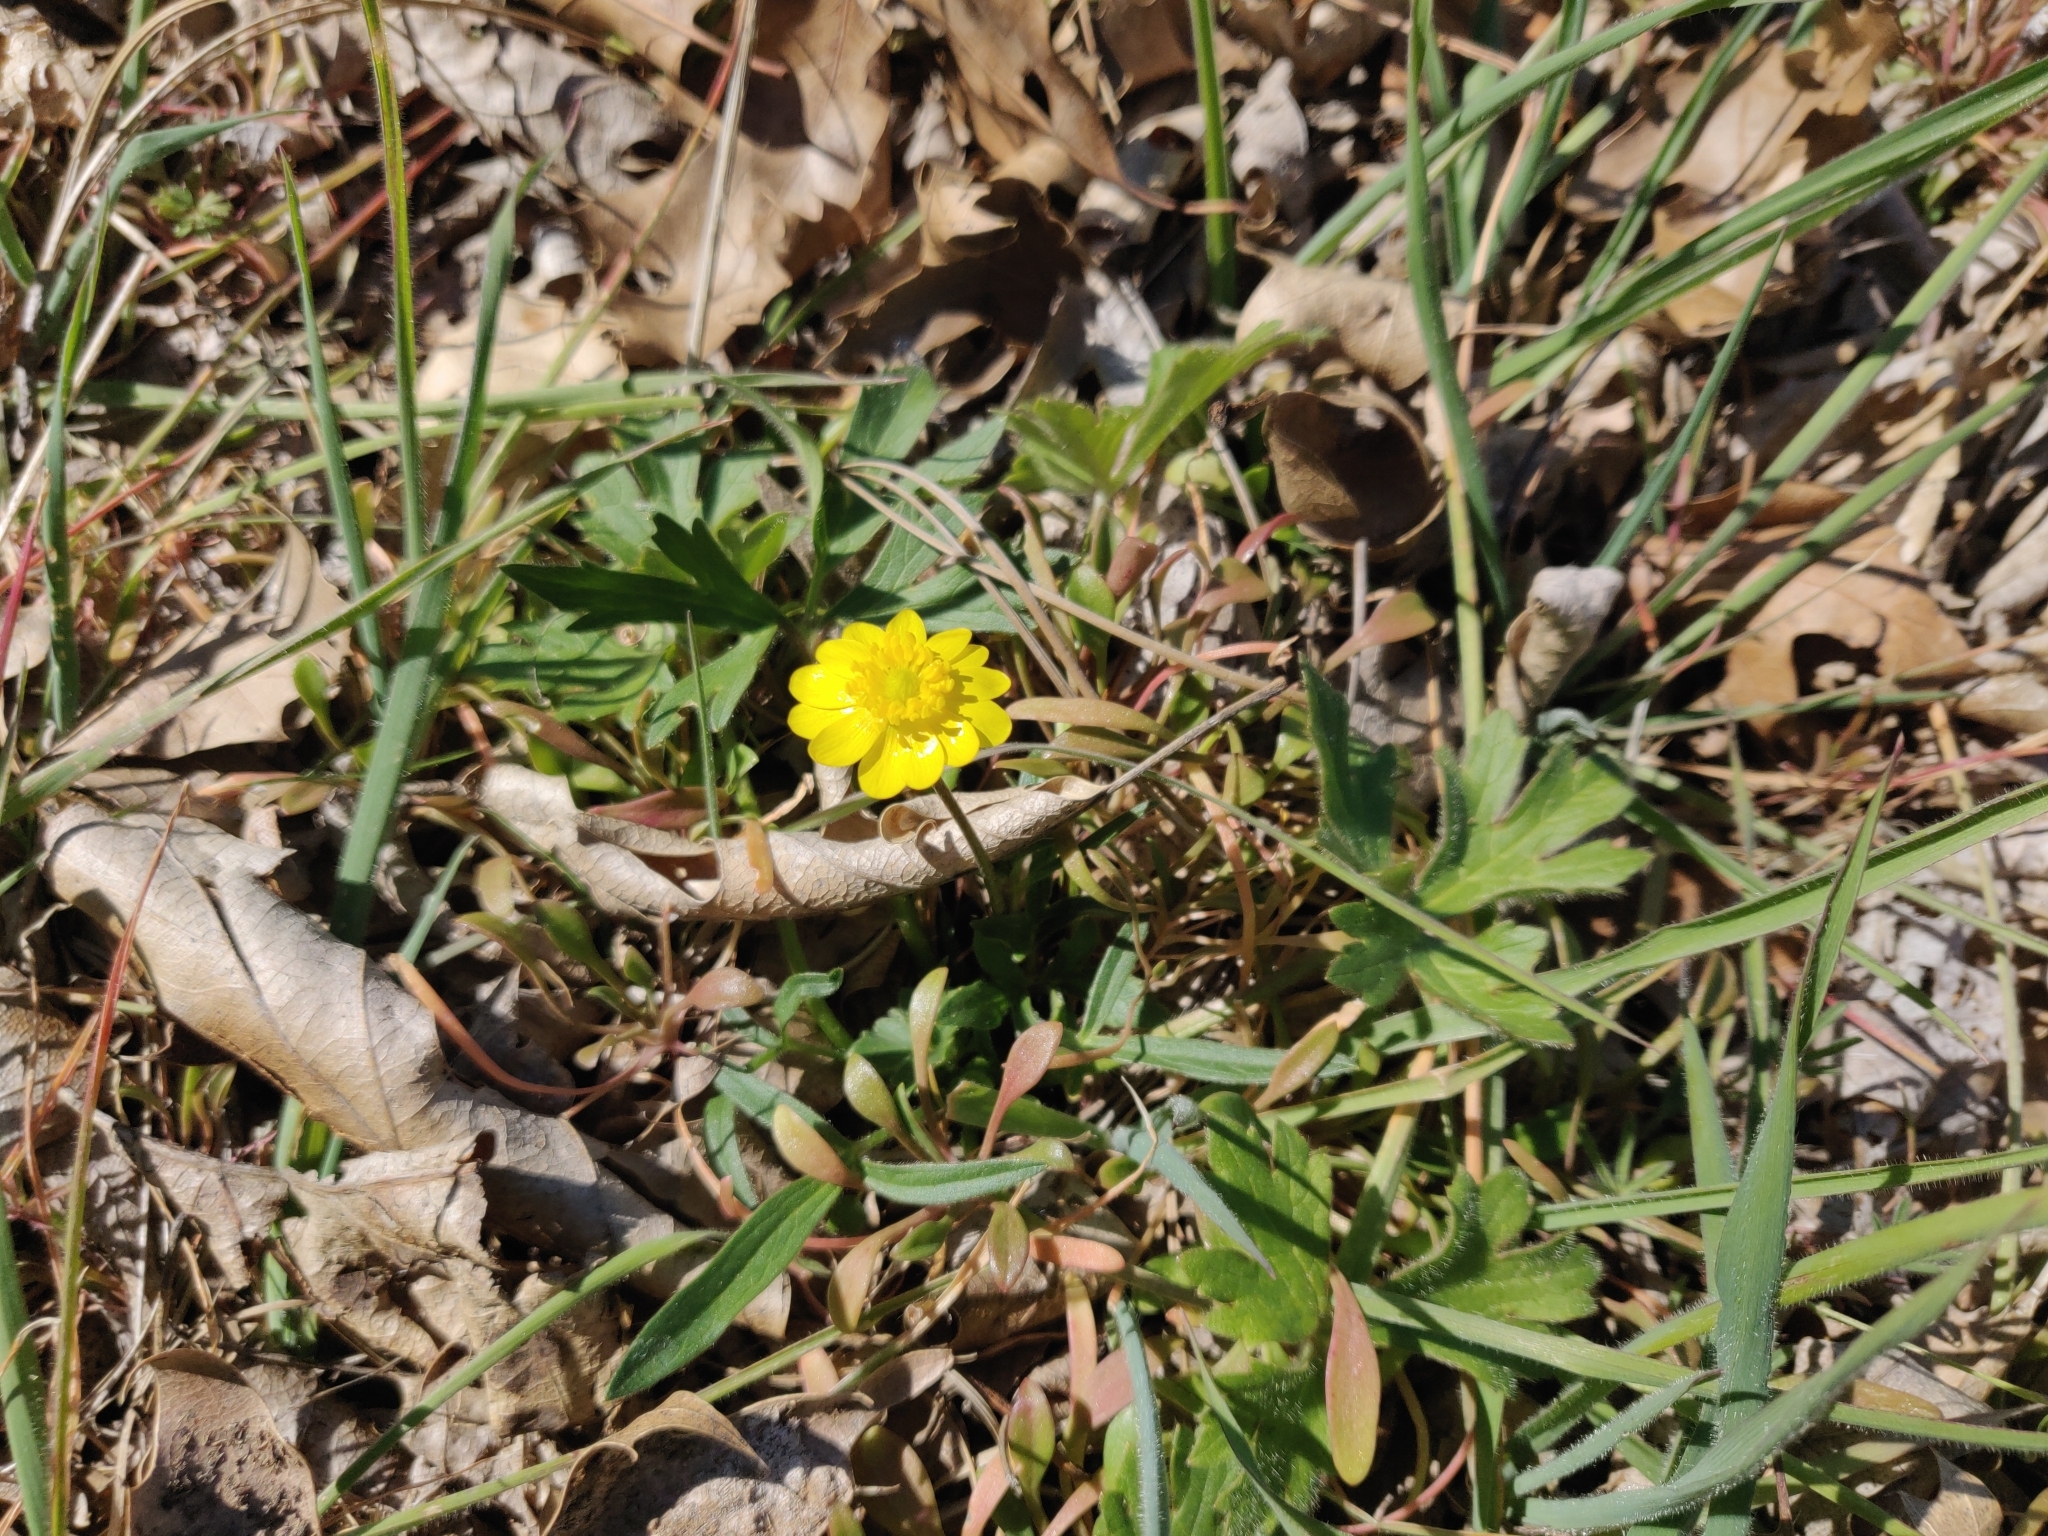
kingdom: Plantae
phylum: Tracheophyta
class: Magnoliopsida
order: Ranunculales
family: Ranunculaceae
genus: Ranunculus
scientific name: Ranunculus californicus
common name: California buttercup
